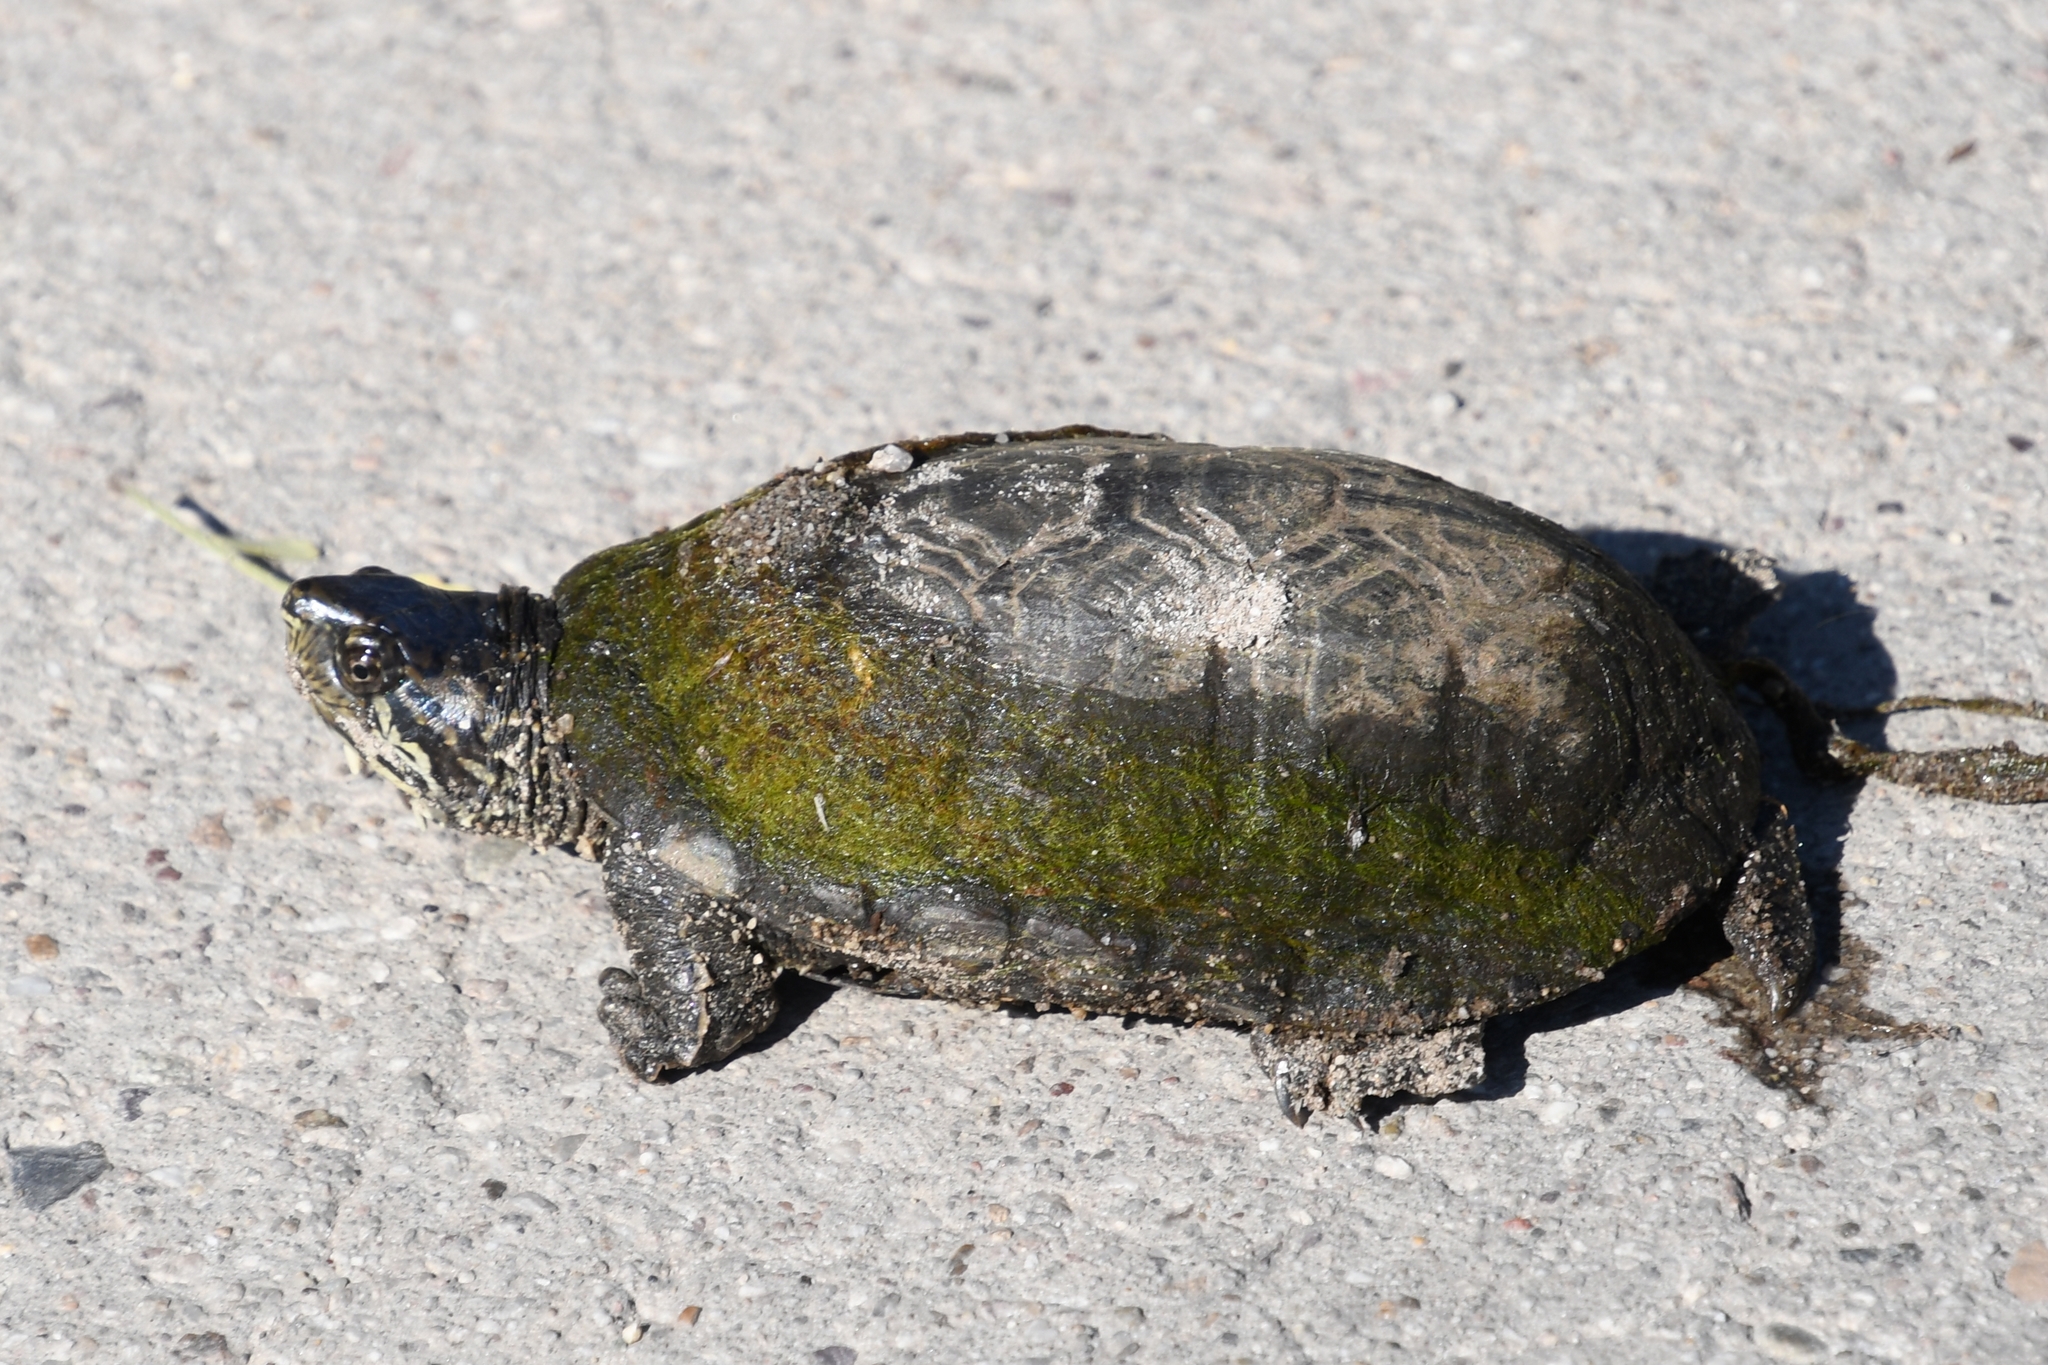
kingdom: Animalia
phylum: Chordata
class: Testudines
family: Kinosternidae
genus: Kinosternon
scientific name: Kinosternon sonoriense
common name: Sonora mud turtle
